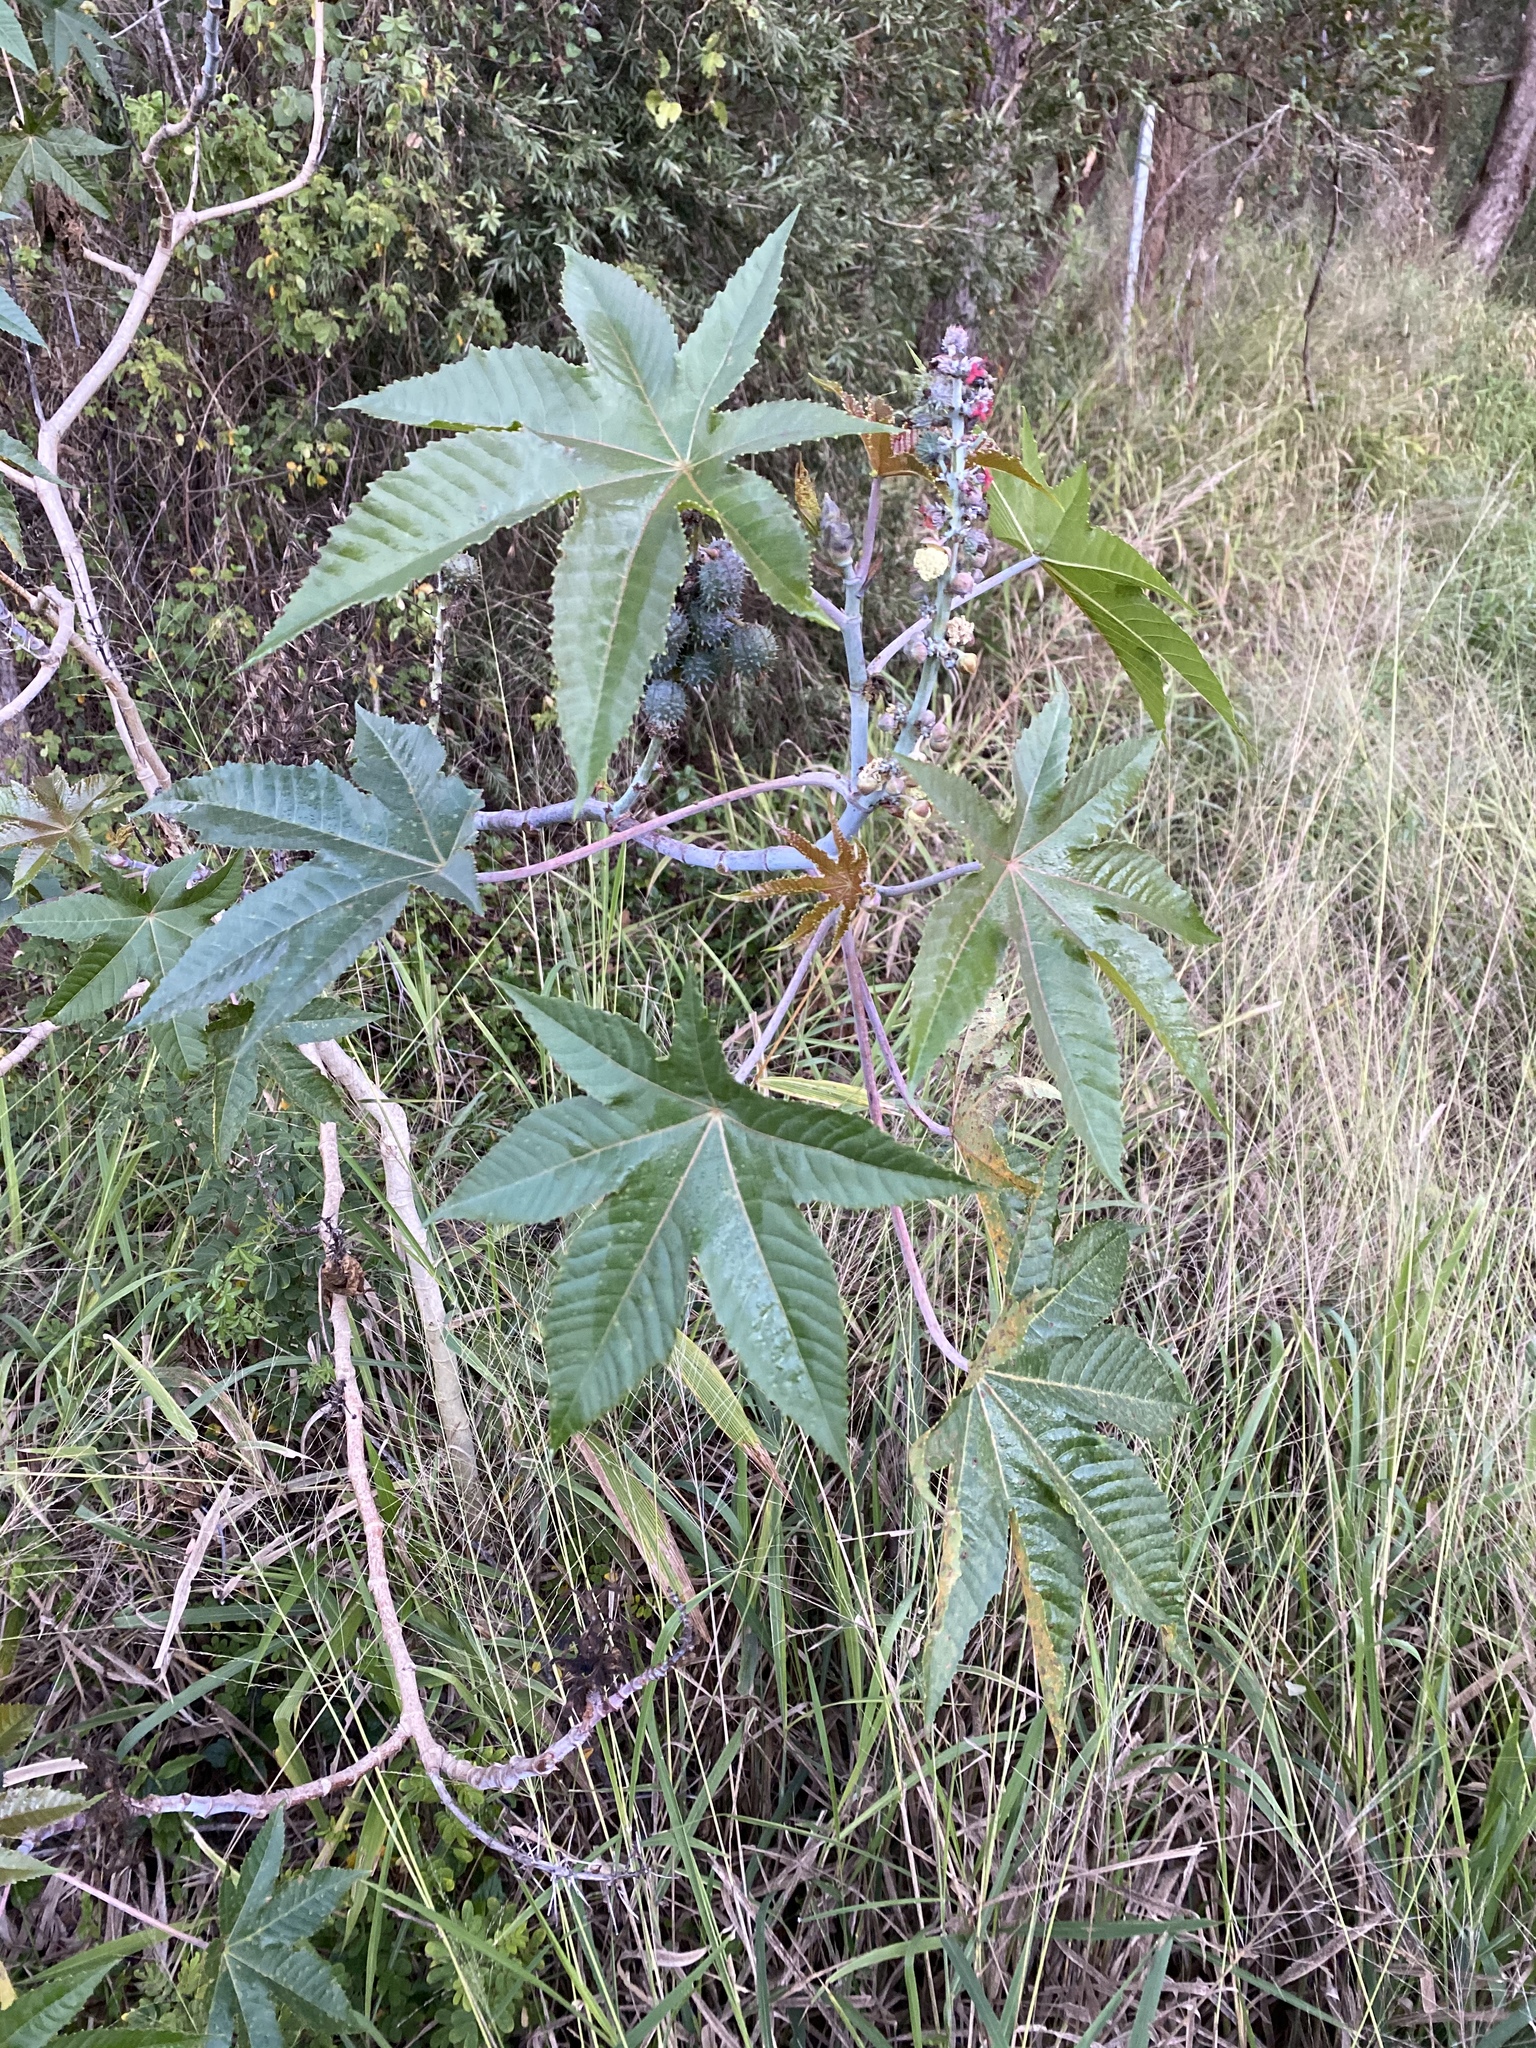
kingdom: Plantae
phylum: Tracheophyta
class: Magnoliopsida
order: Malpighiales
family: Euphorbiaceae
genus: Ricinus
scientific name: Ricinus communis
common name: Castor-oil-plant
